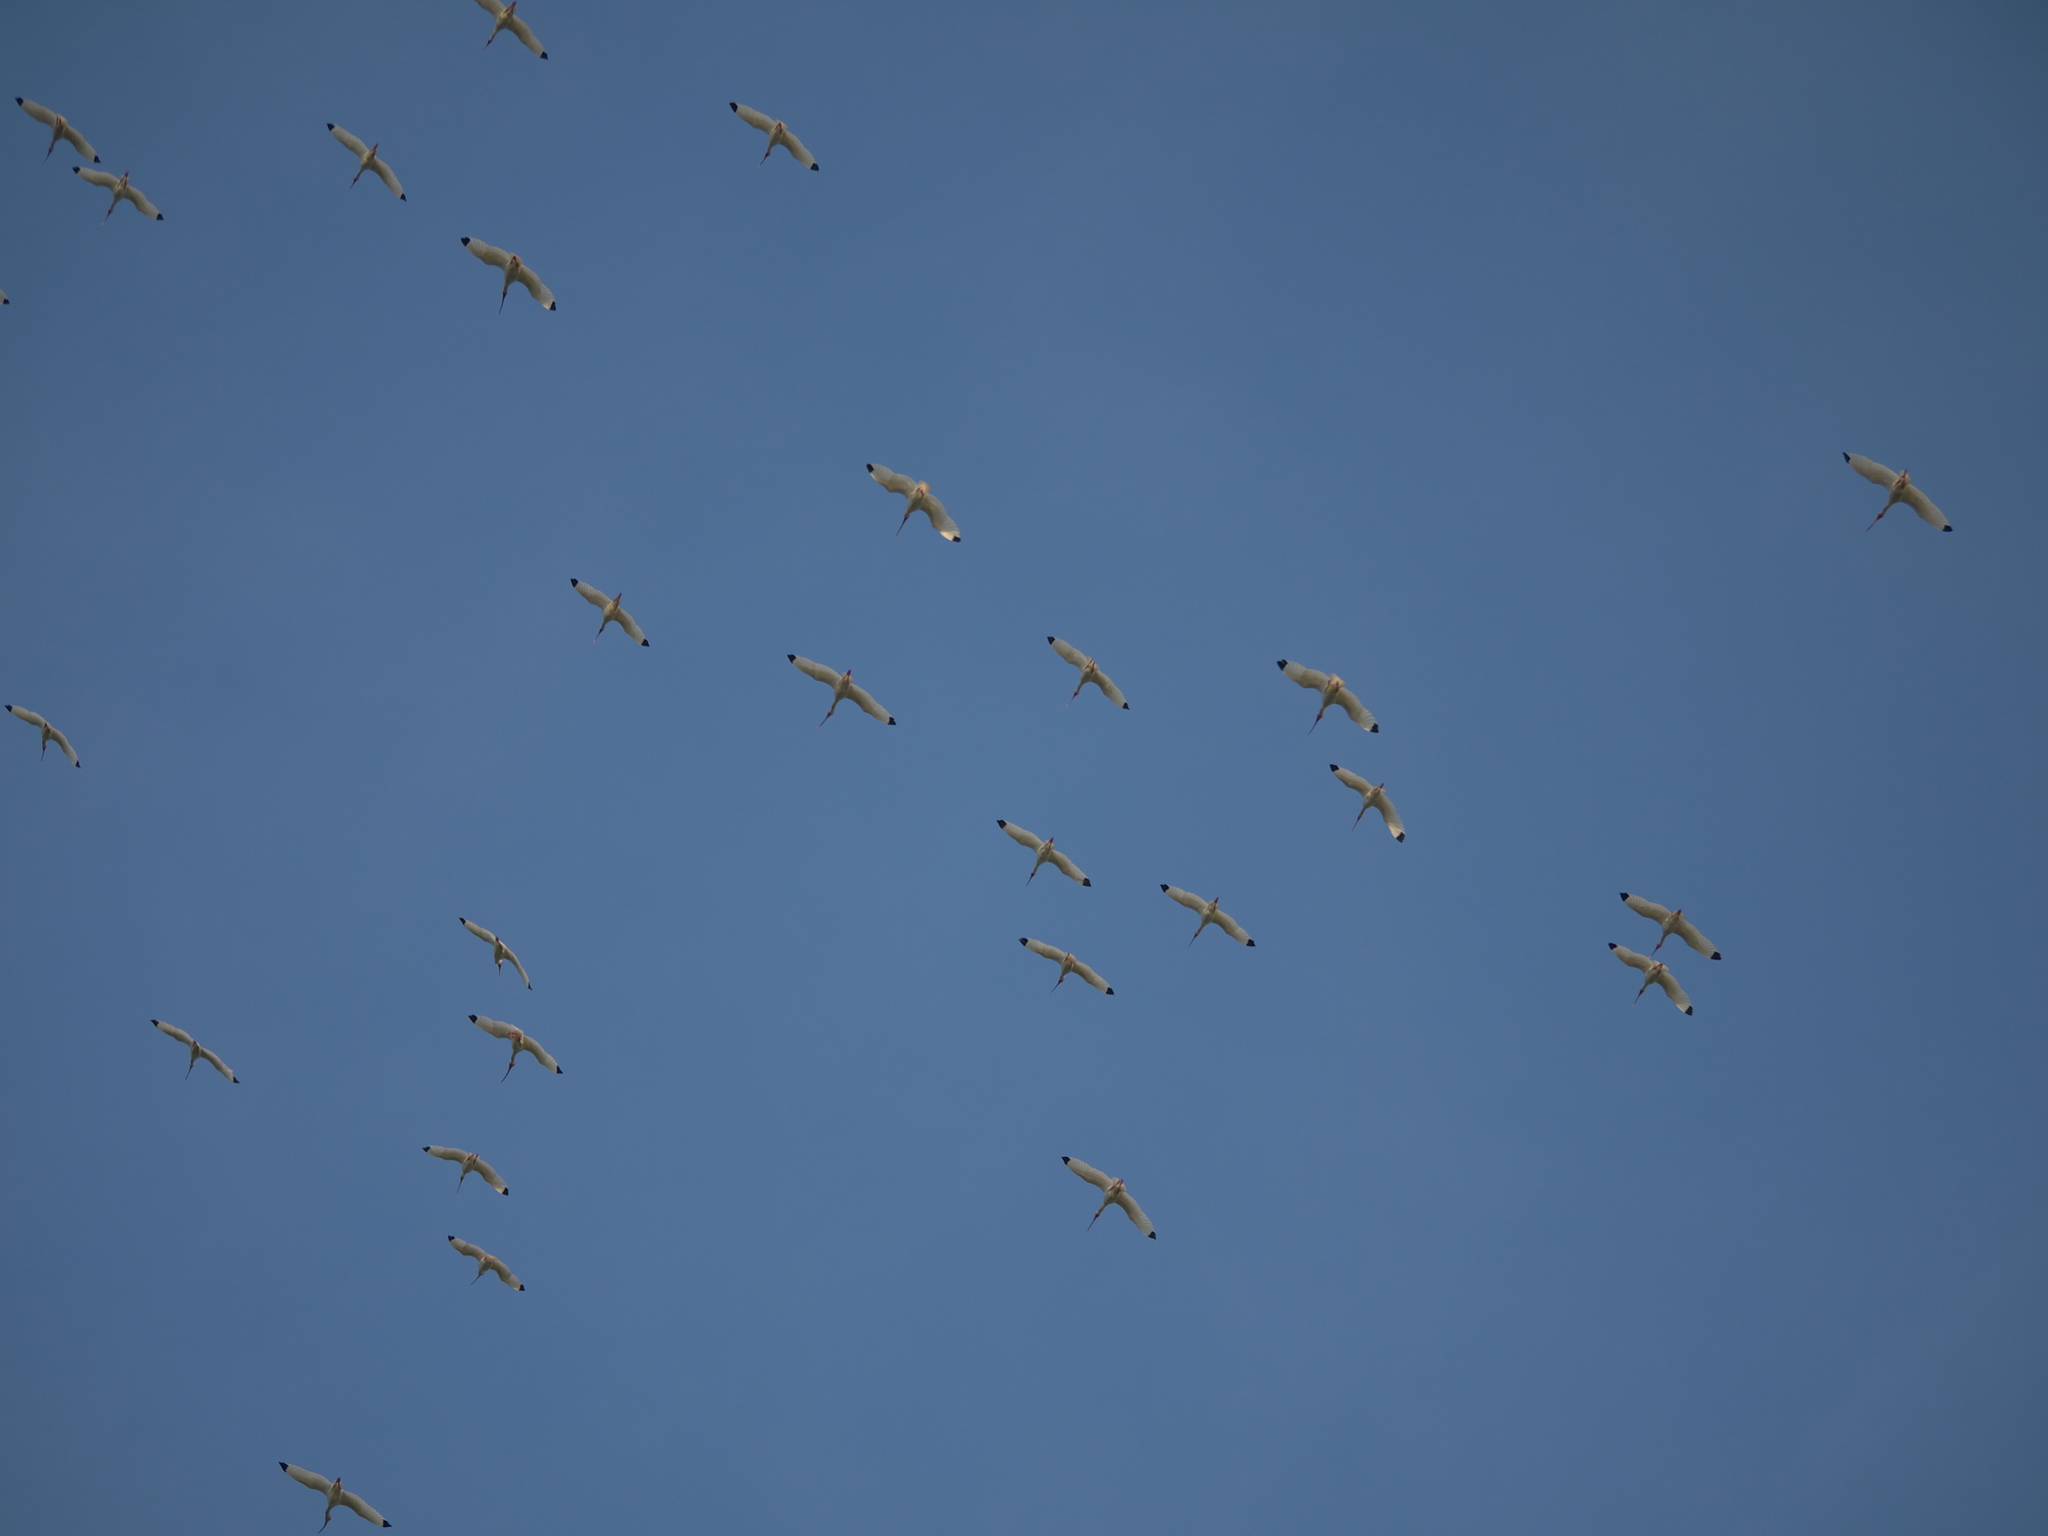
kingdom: Animalia
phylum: Chordata
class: Aves
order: Pelecaniformes
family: Threskiornithidae
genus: Eudocimus
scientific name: Eudocimus albus
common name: White ibis
